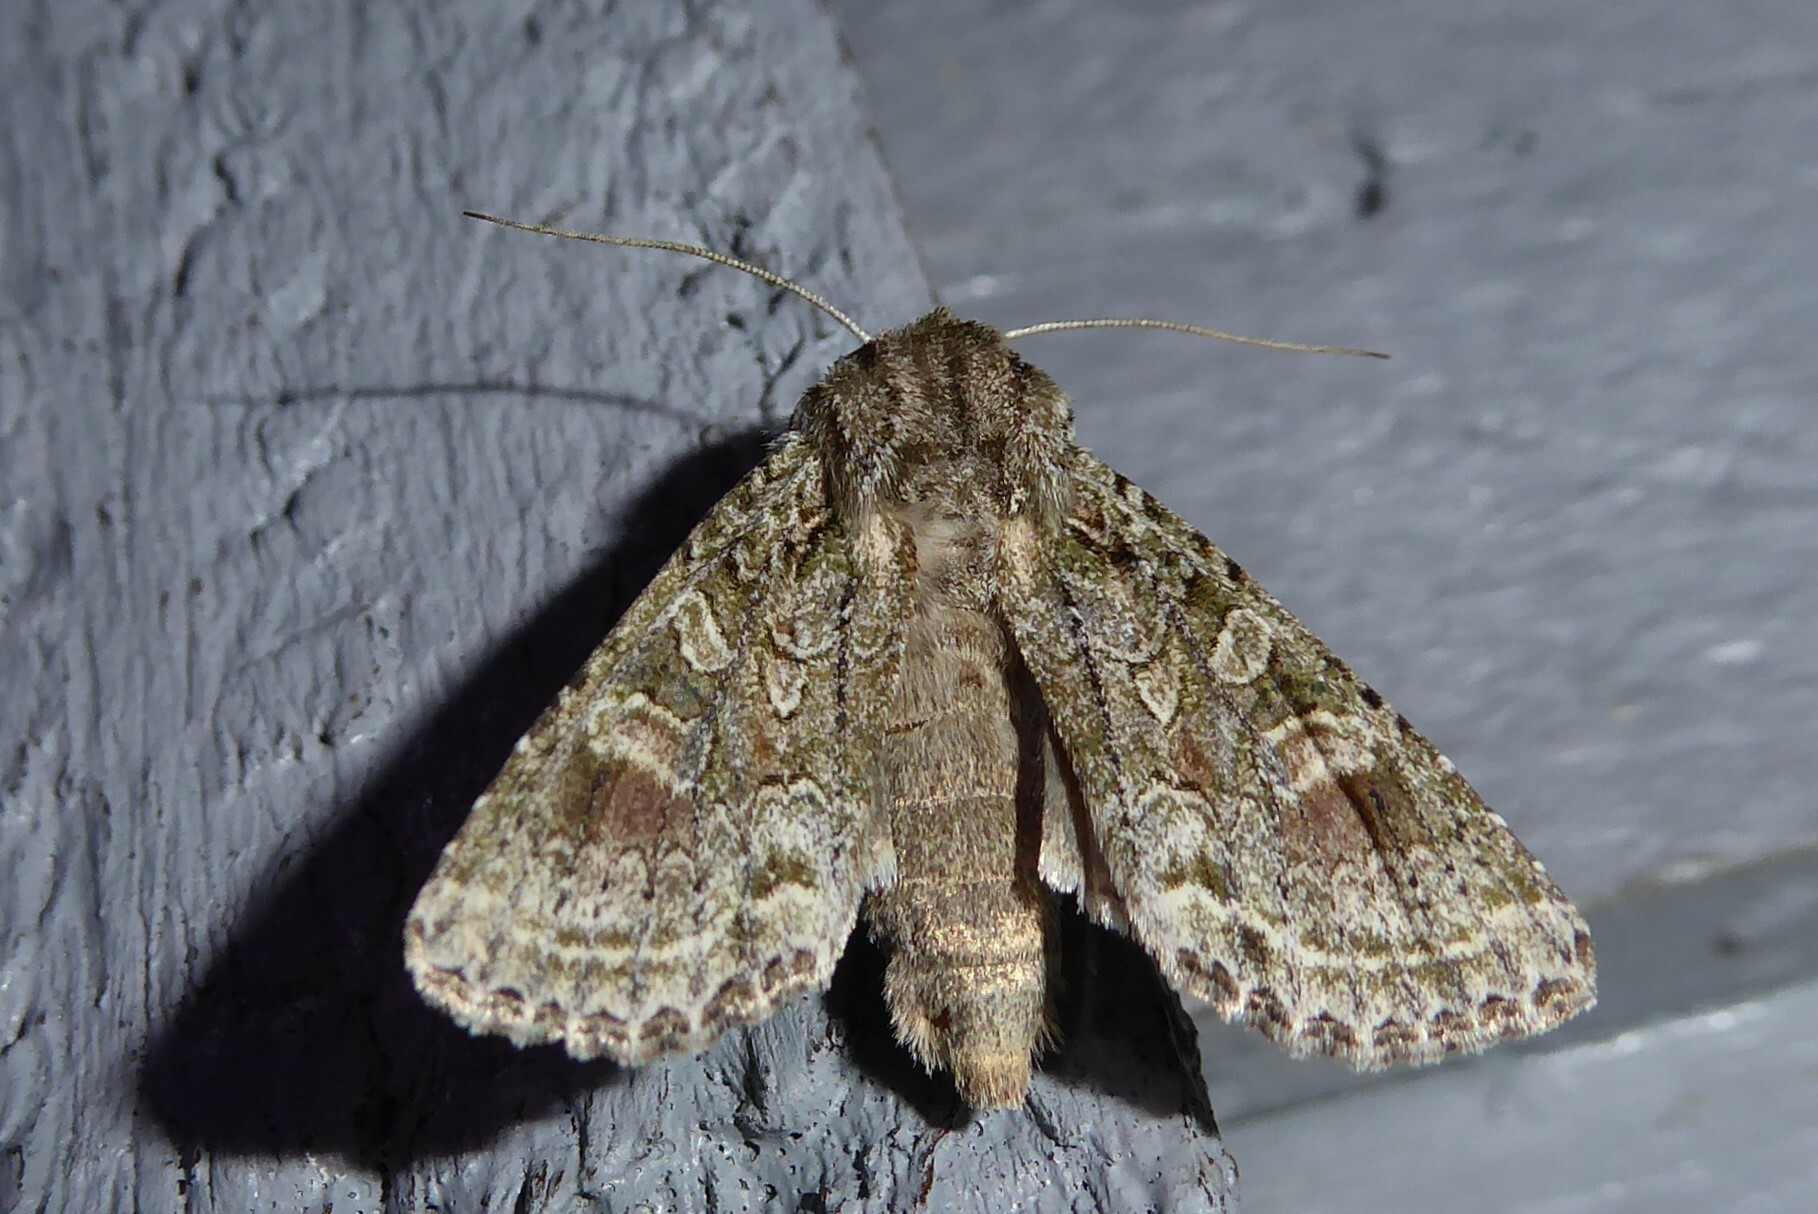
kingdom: Animalia
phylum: Arthropoda
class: Insecta
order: Lepidoptera
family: Noctuidae
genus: Ichneutica
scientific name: Ichneutica mutans
